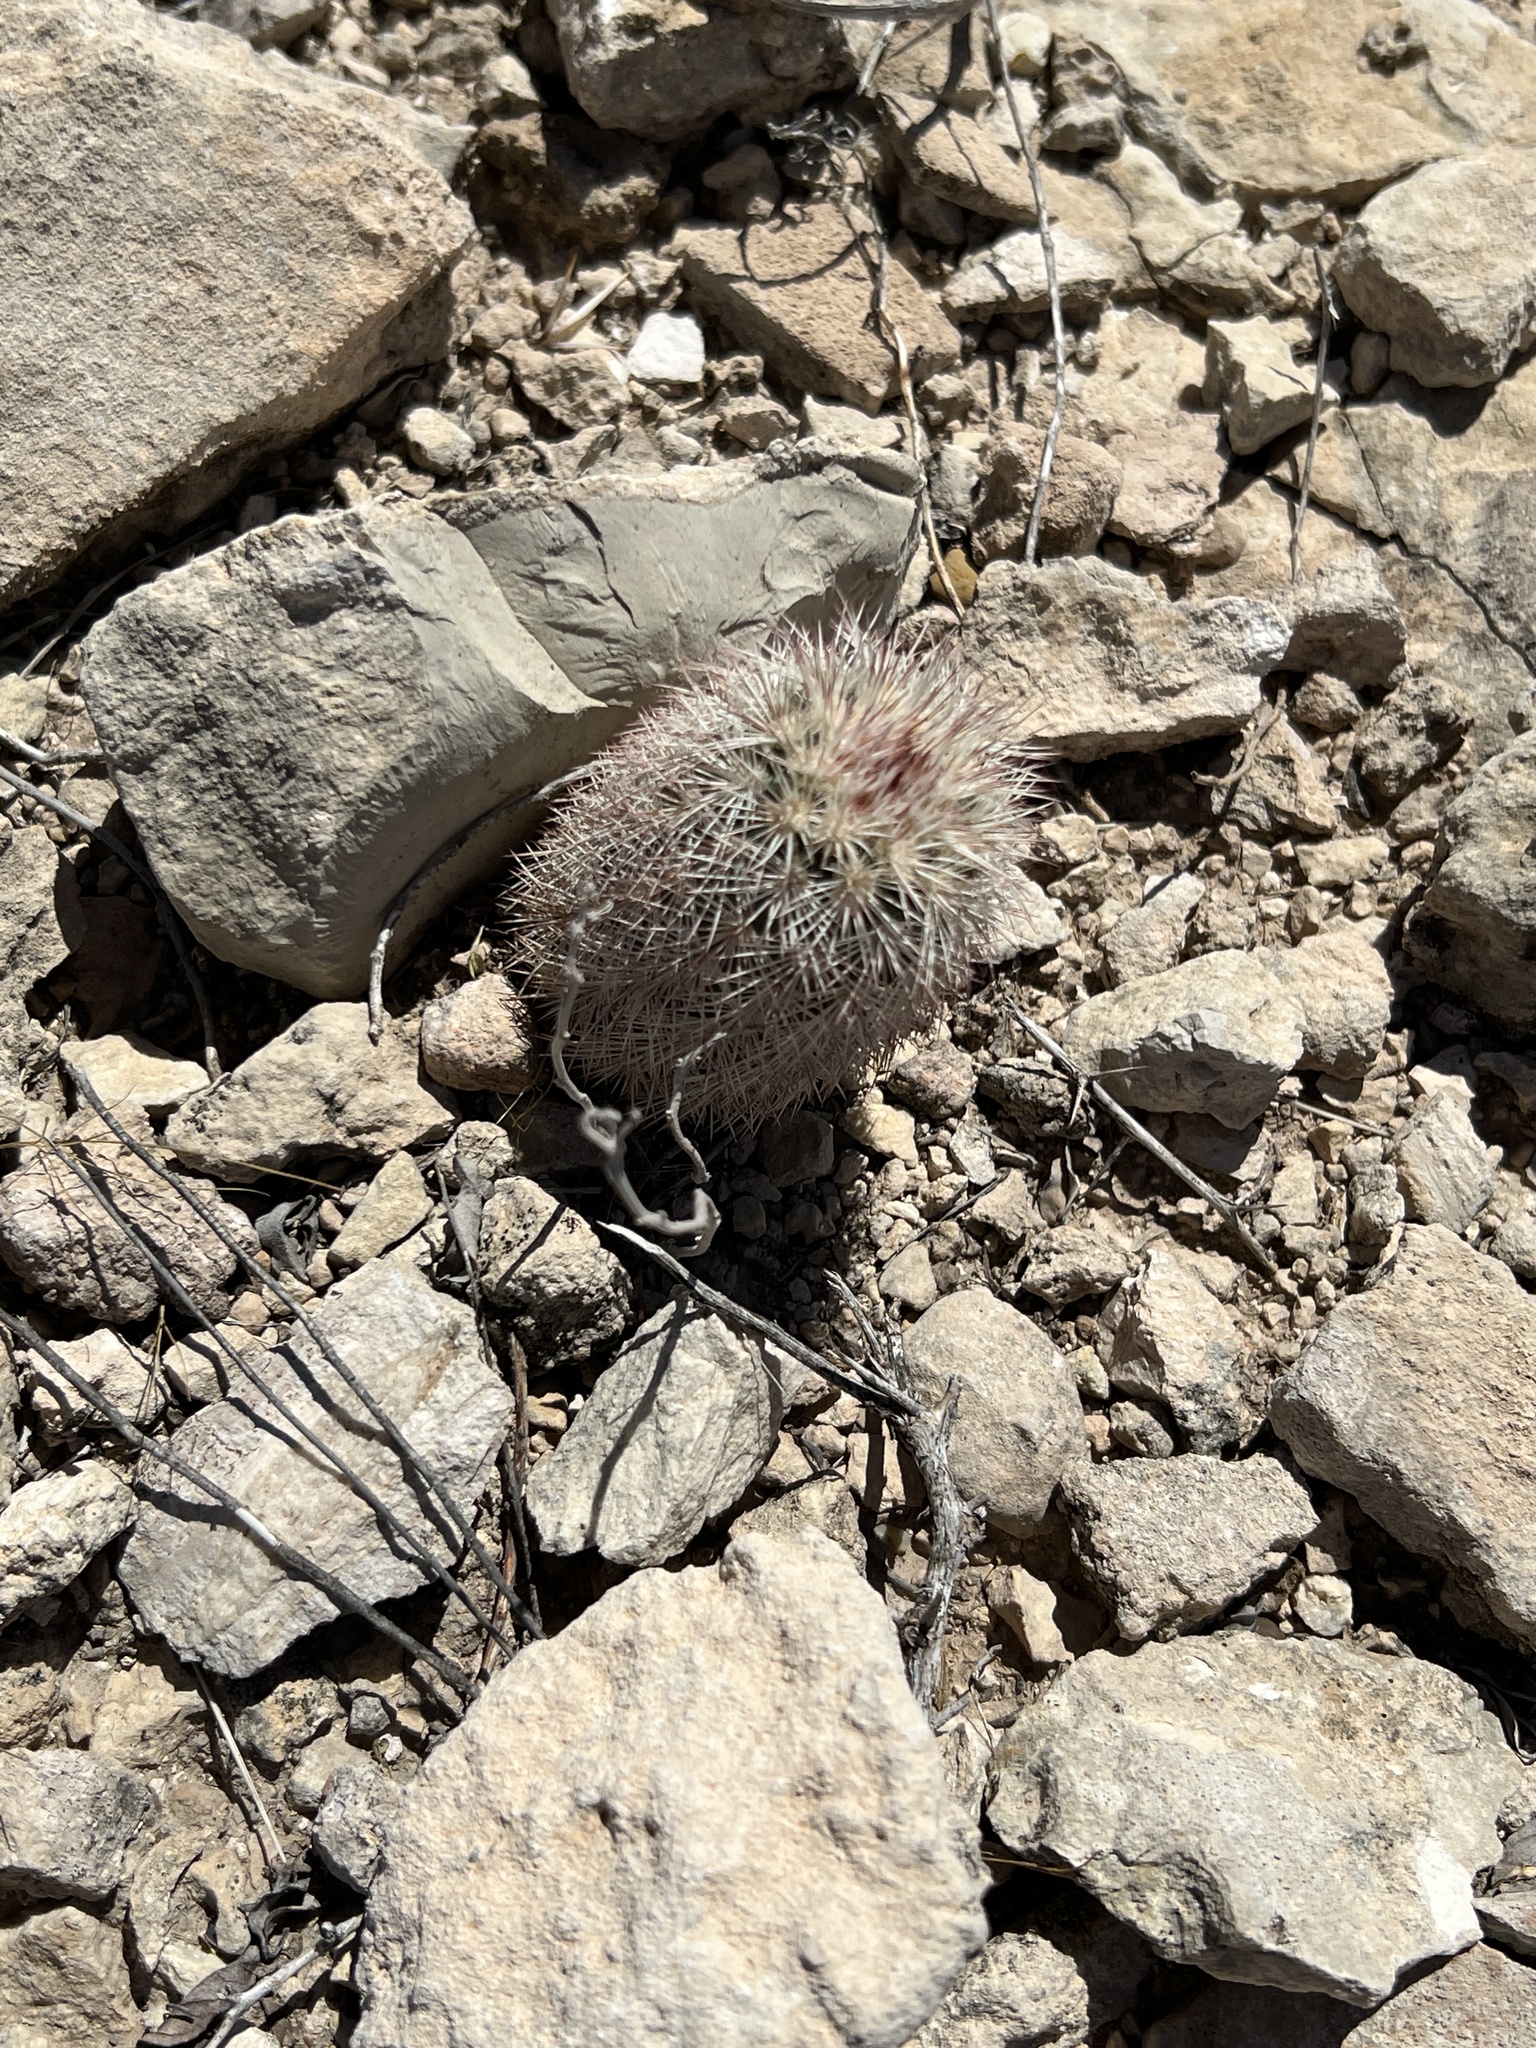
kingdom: Plantae
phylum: Tracheophyta
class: Magnoliopsida
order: Caryophyllales
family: Cactaceae
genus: Echinocereus
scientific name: Echinocereus dasyacanthus
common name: Spiny hedgehog cactus
